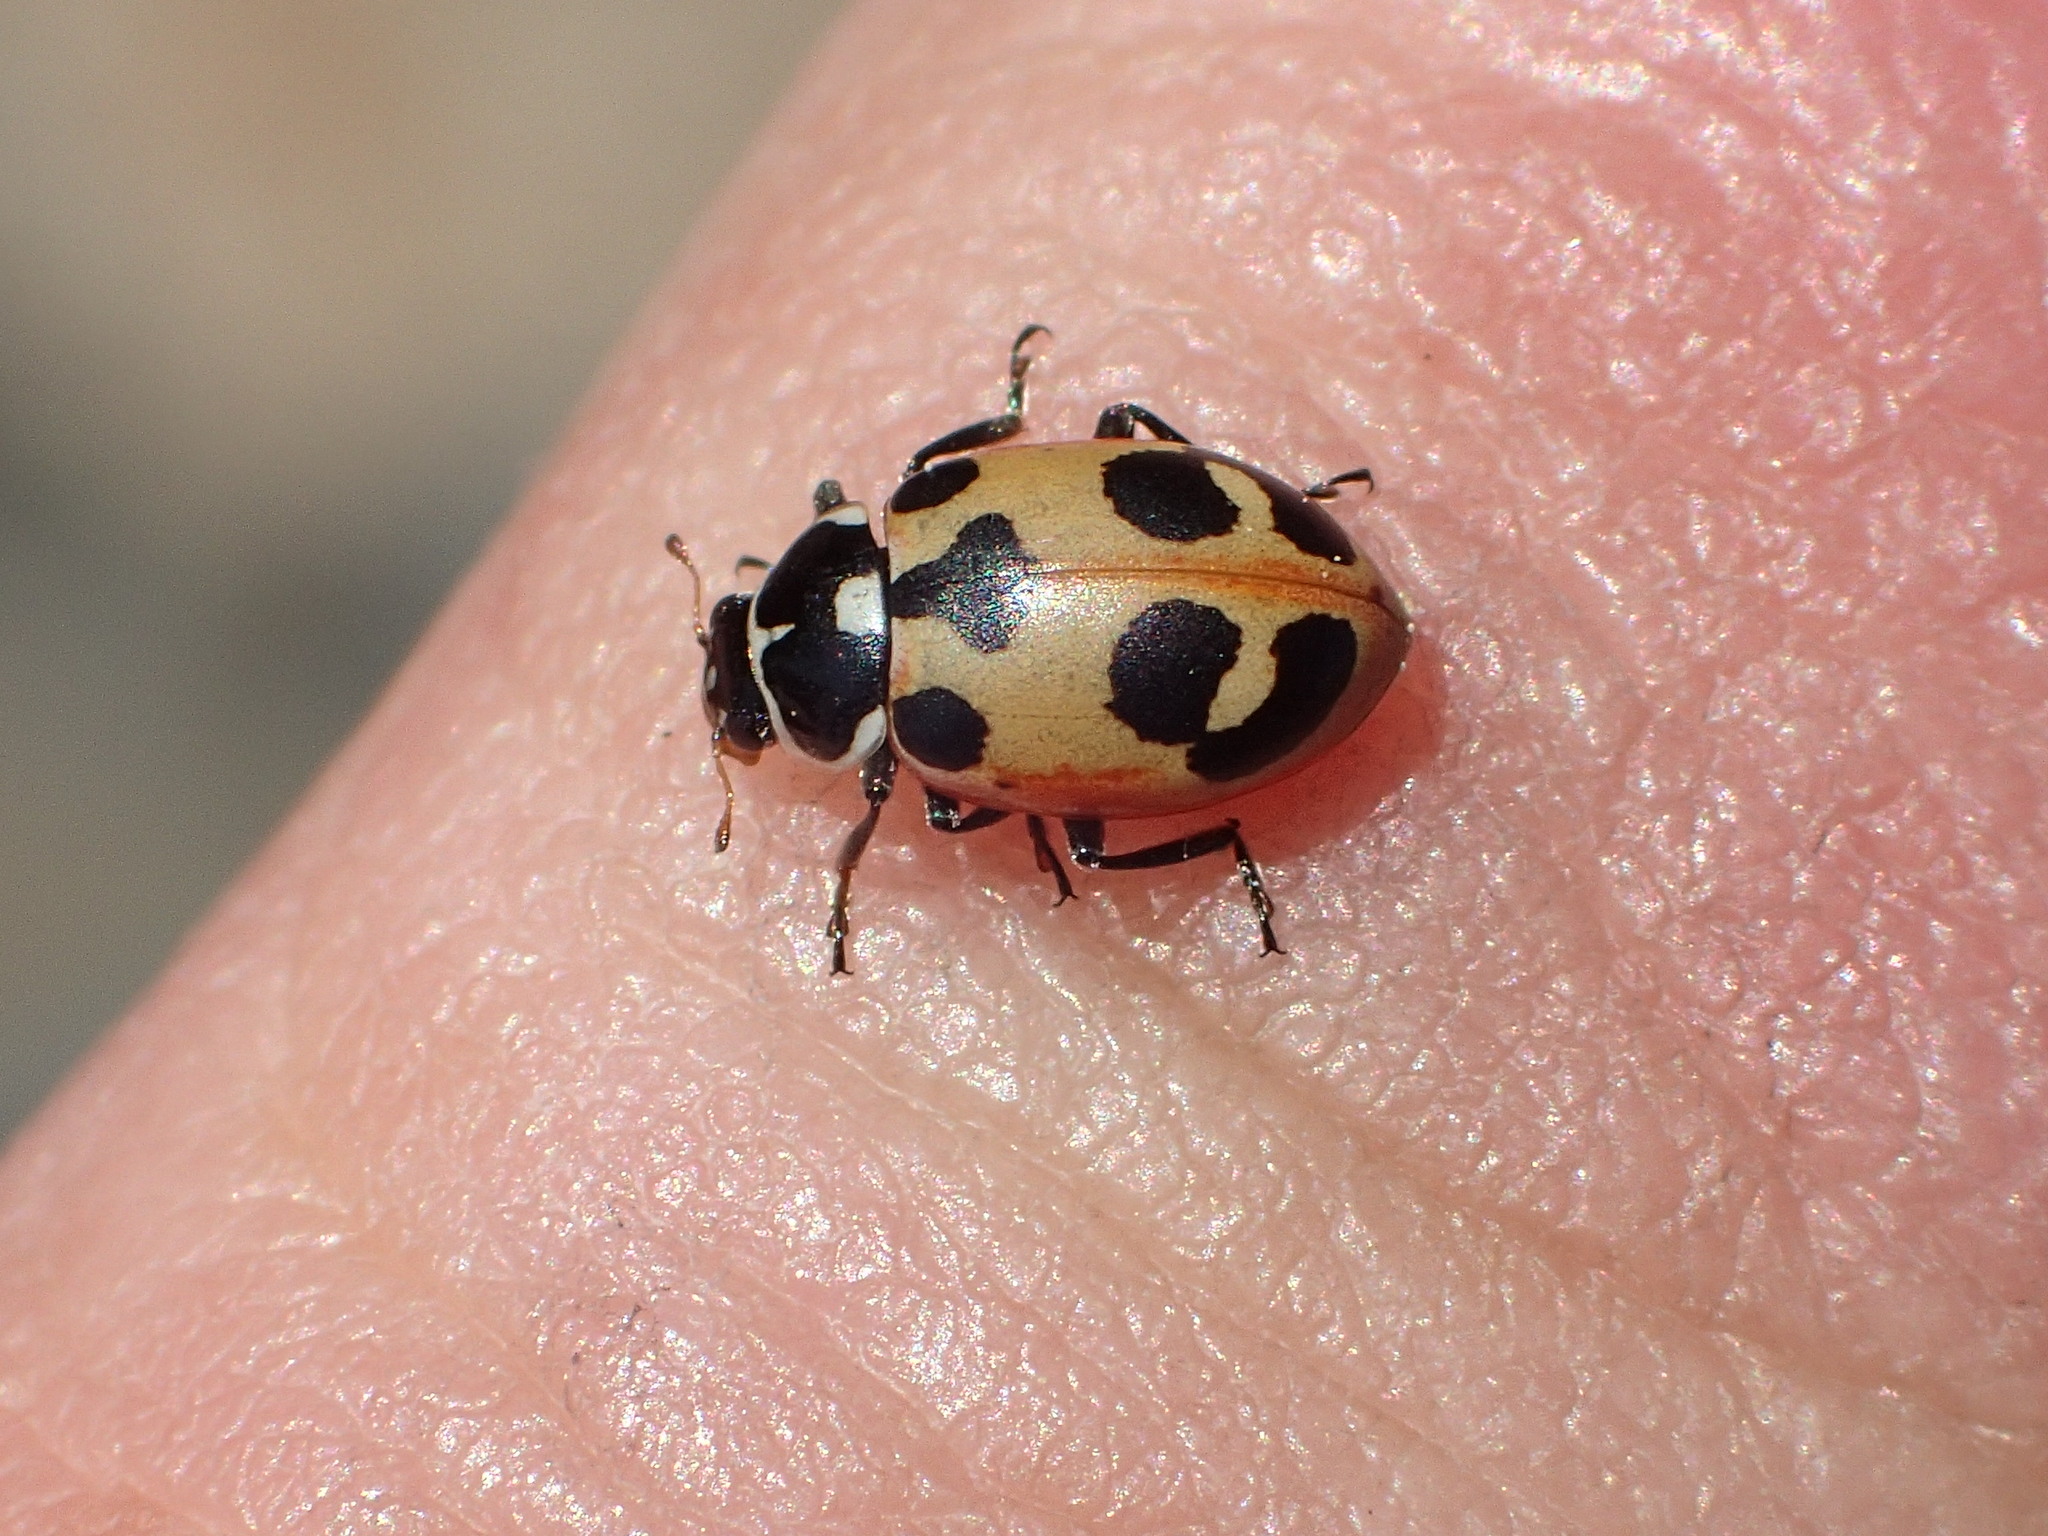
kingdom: Animalia
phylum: Arthropoda
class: Insecta
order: Coleoptera
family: Coccinellidae
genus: Hippodamia
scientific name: Hippodamia parenthesis
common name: Parenthesis lady beetle
